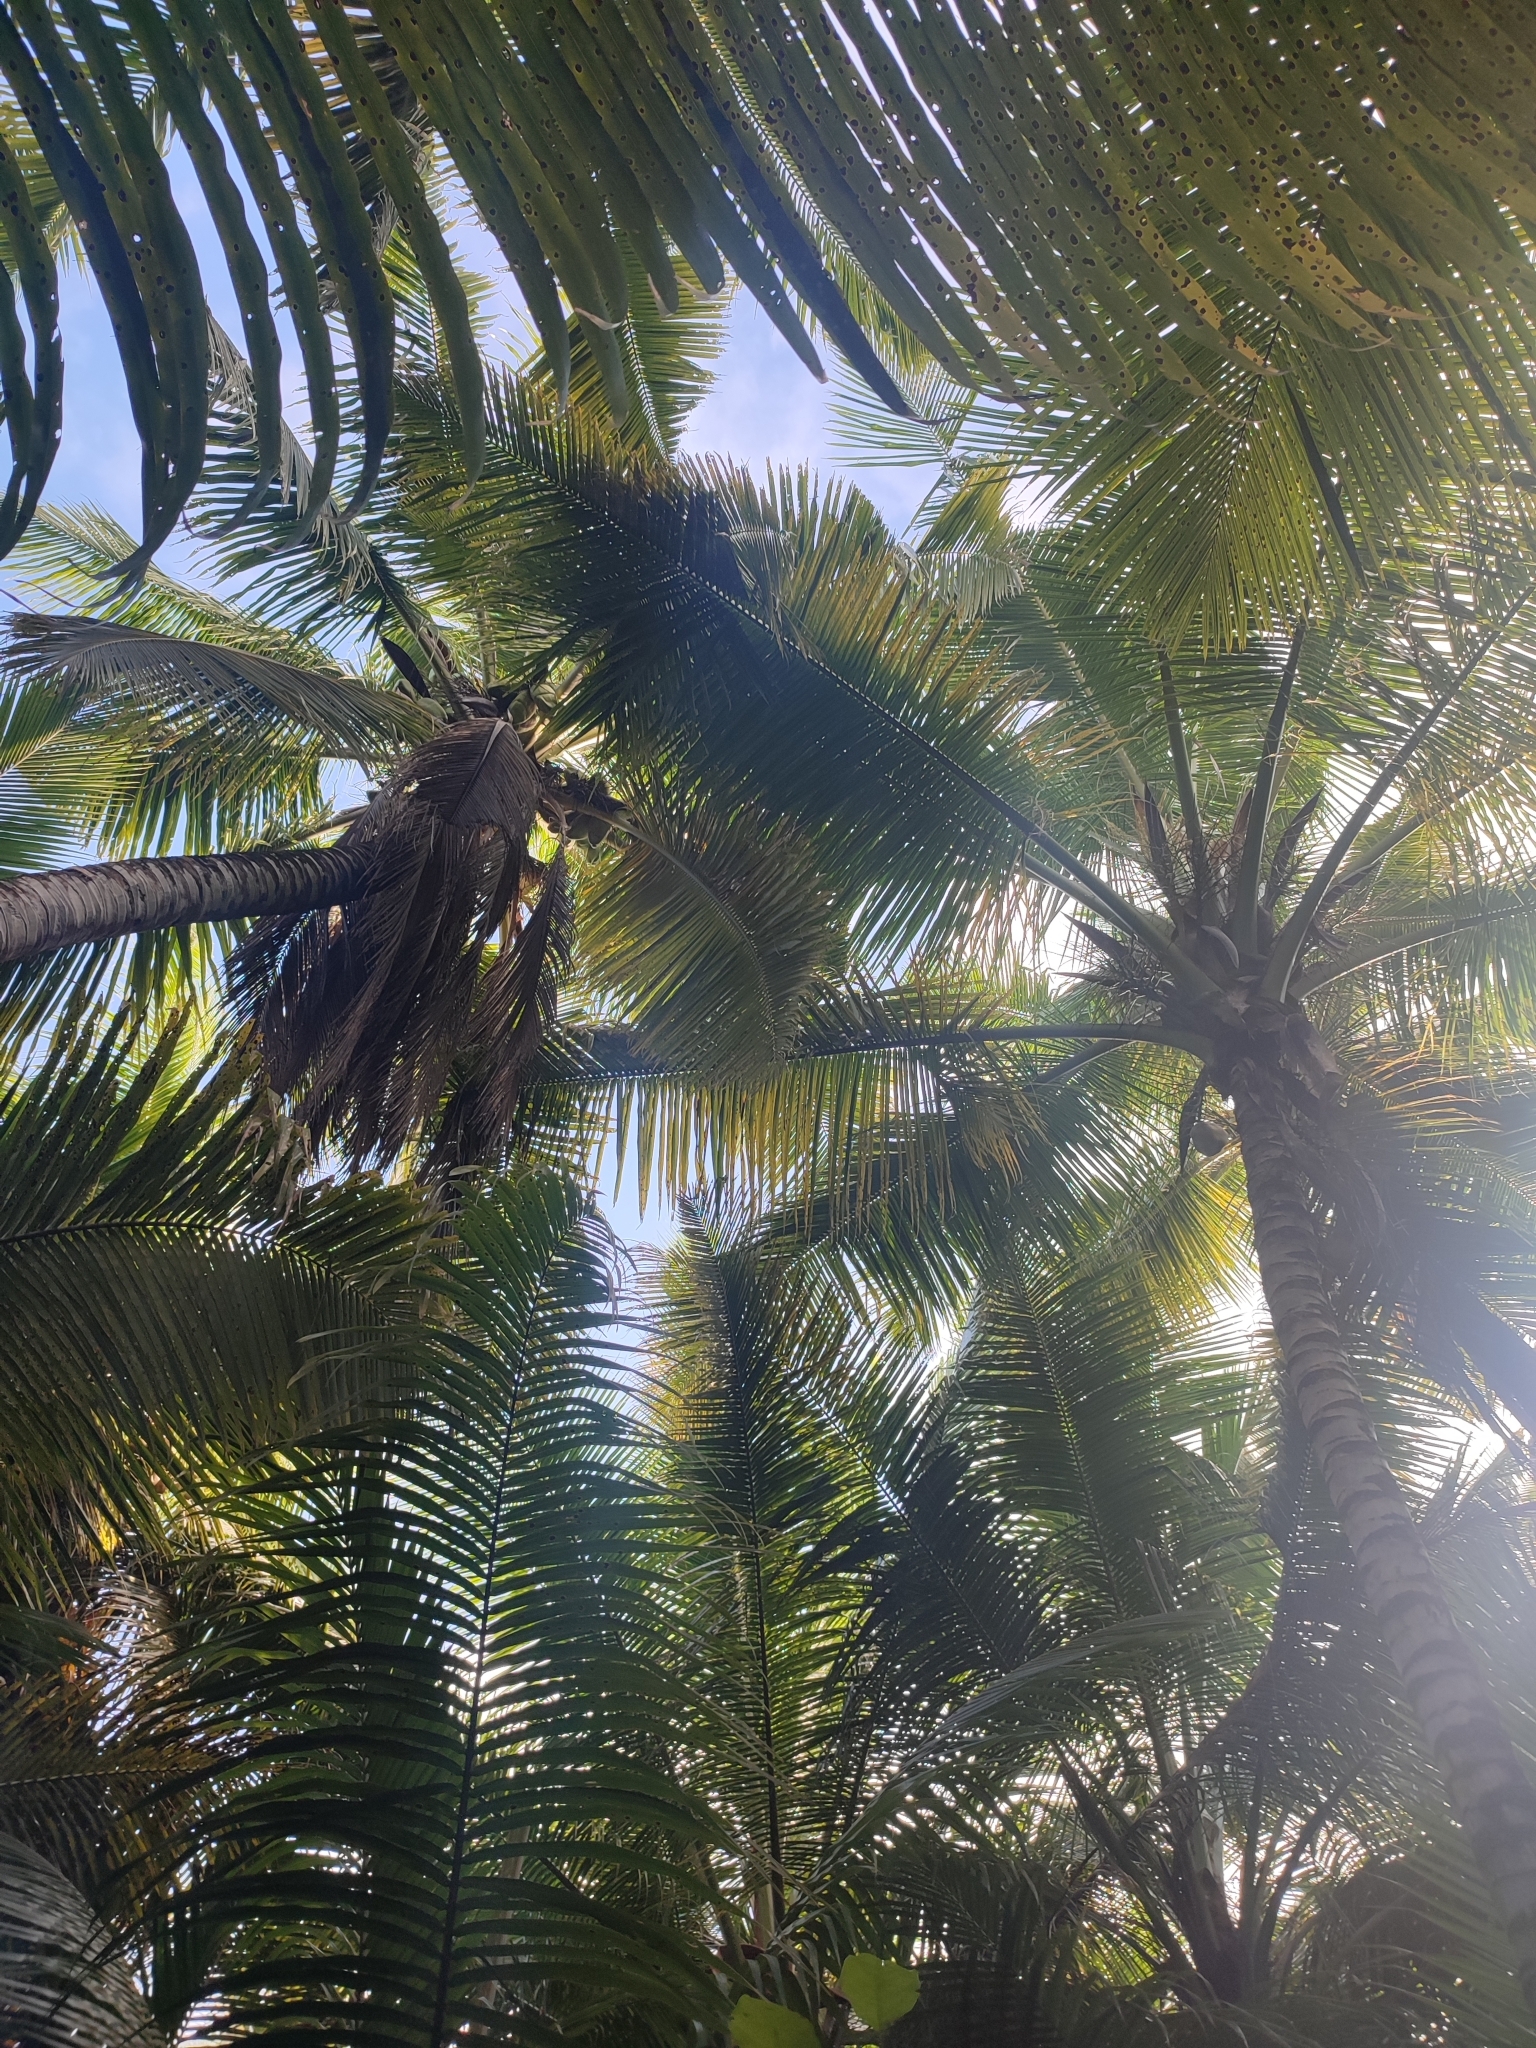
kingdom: Plantae
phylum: Tracheophyta
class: Liliopsida
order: Arecales
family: Arecaceae
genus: Cocos
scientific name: Cocos nucifera
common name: Coconut palm
